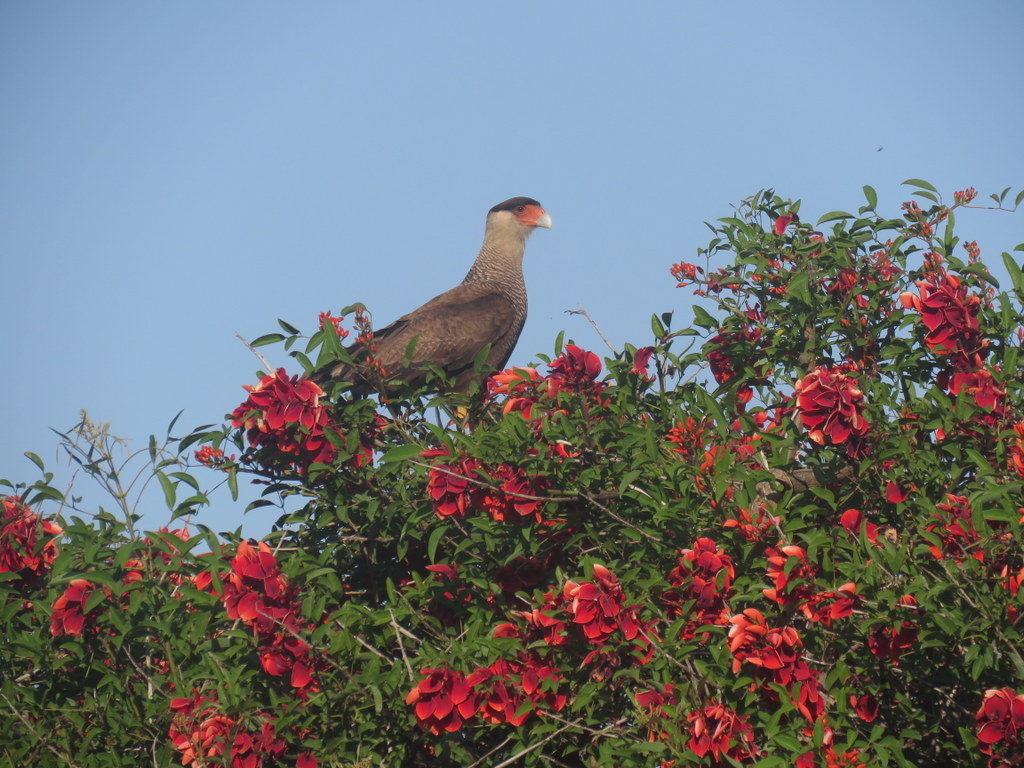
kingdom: Animalia
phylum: Chordata
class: Aves
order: Falconiformes
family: Falconidae
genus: Caracara
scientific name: Caracara plancus
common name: Southern caracara
